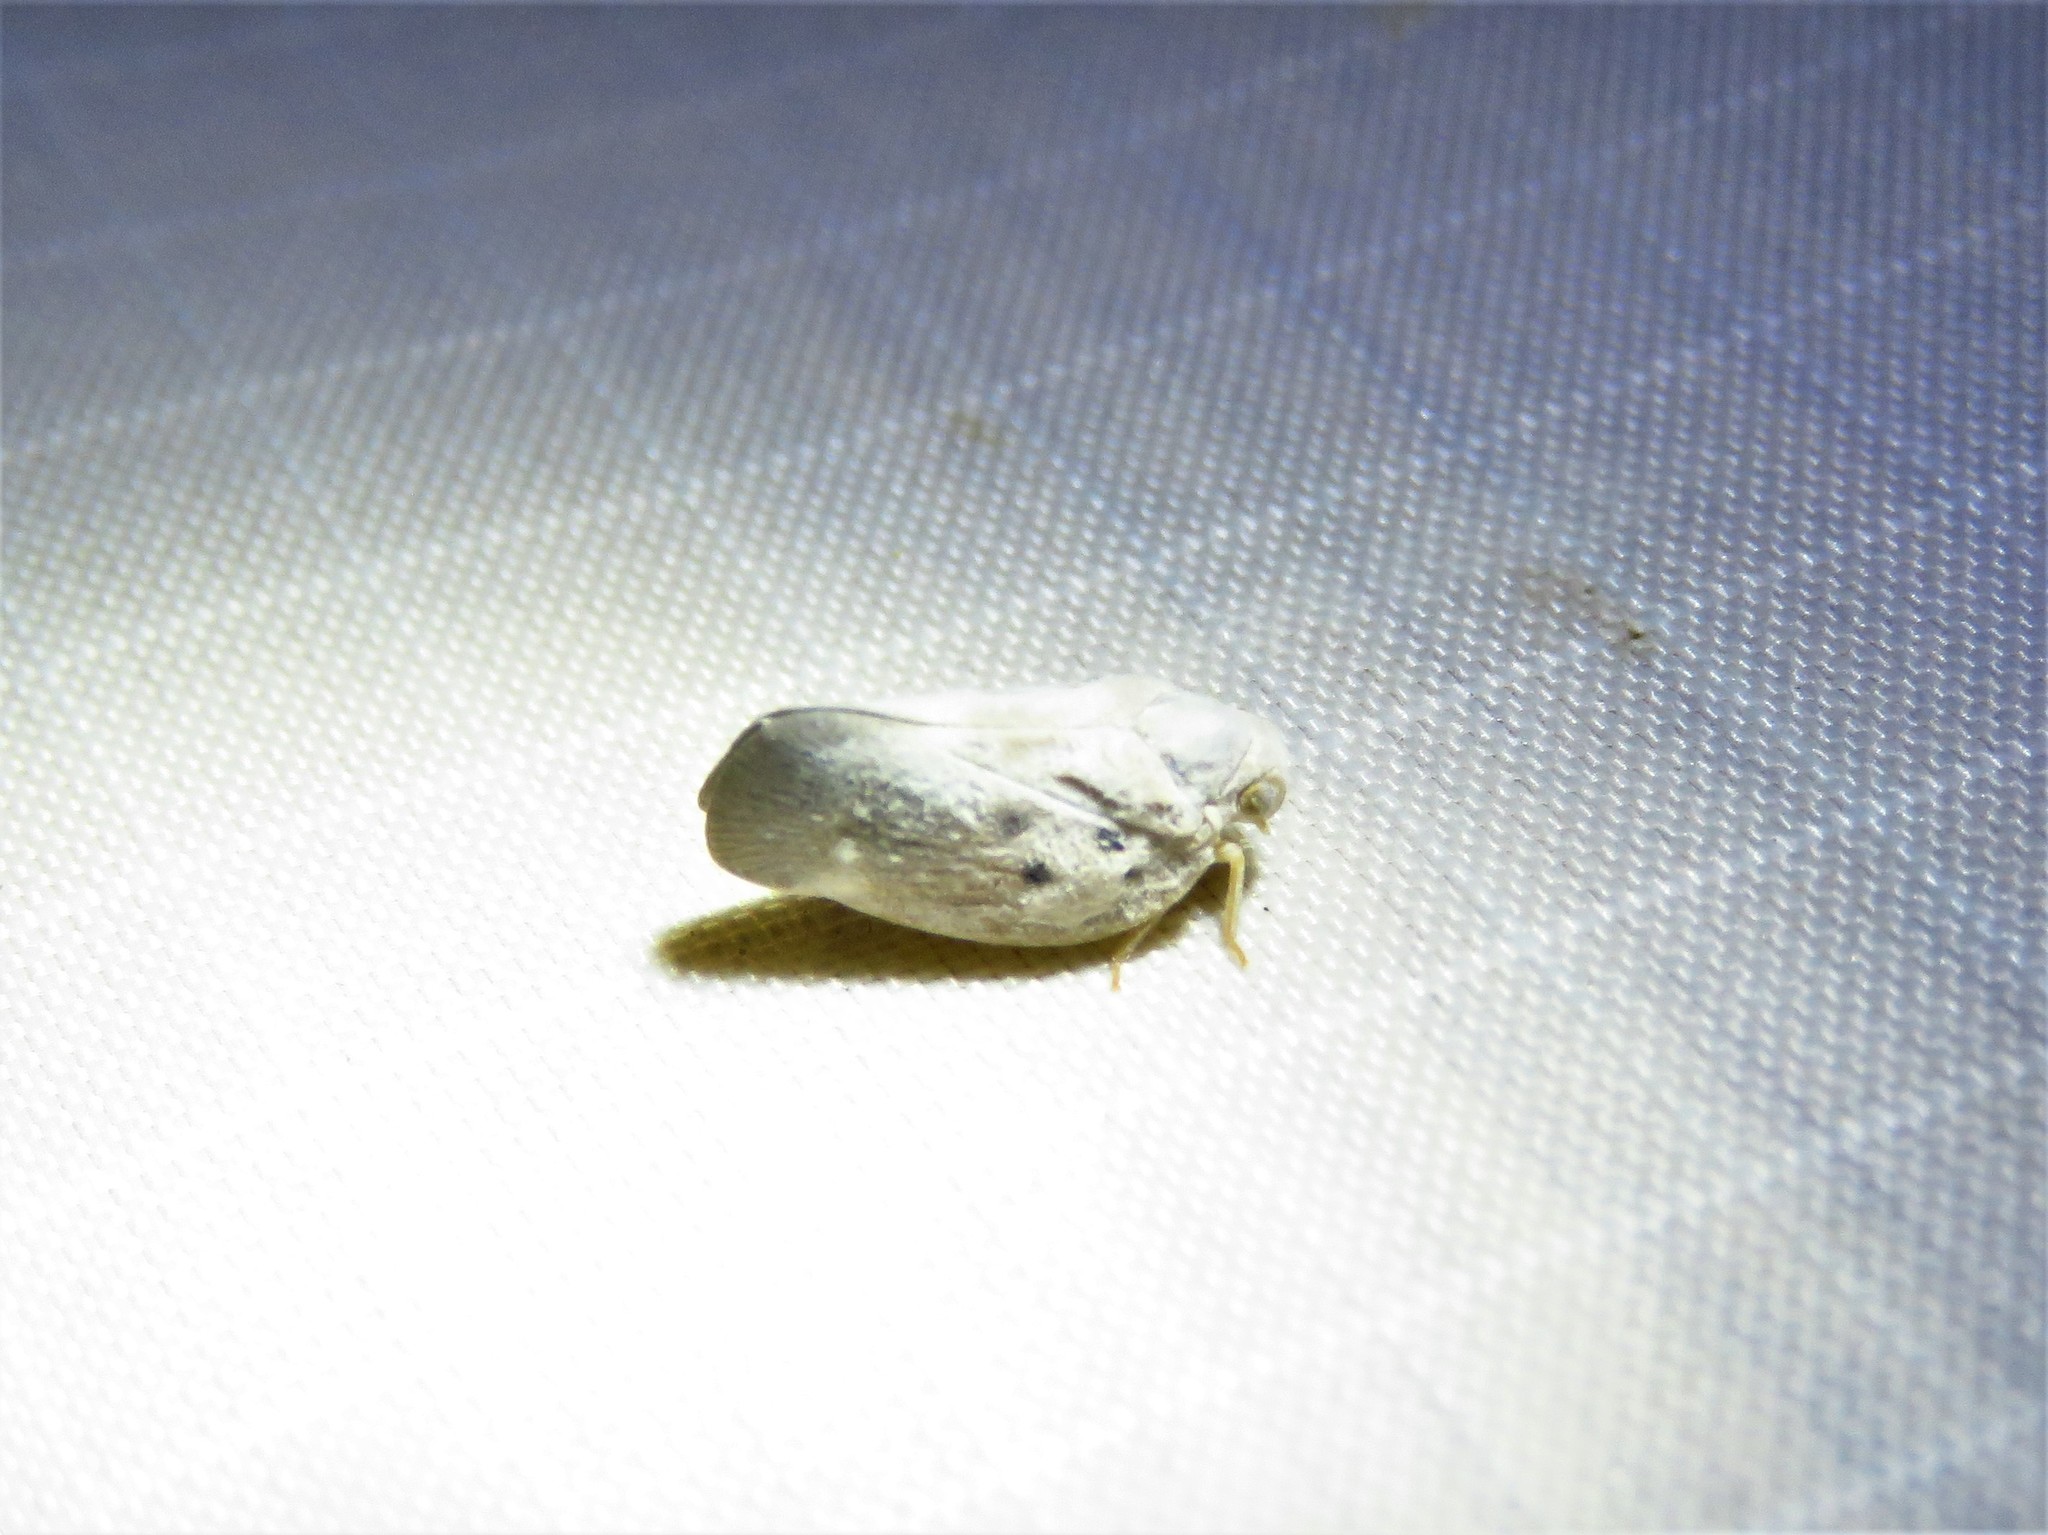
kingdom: Animalia
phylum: Arthropoda
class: Insecta
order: Hemiptera
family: Flatidae
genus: Metcalfa
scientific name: Metcalfa pruinosa
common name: Citrus flatid planthopper
